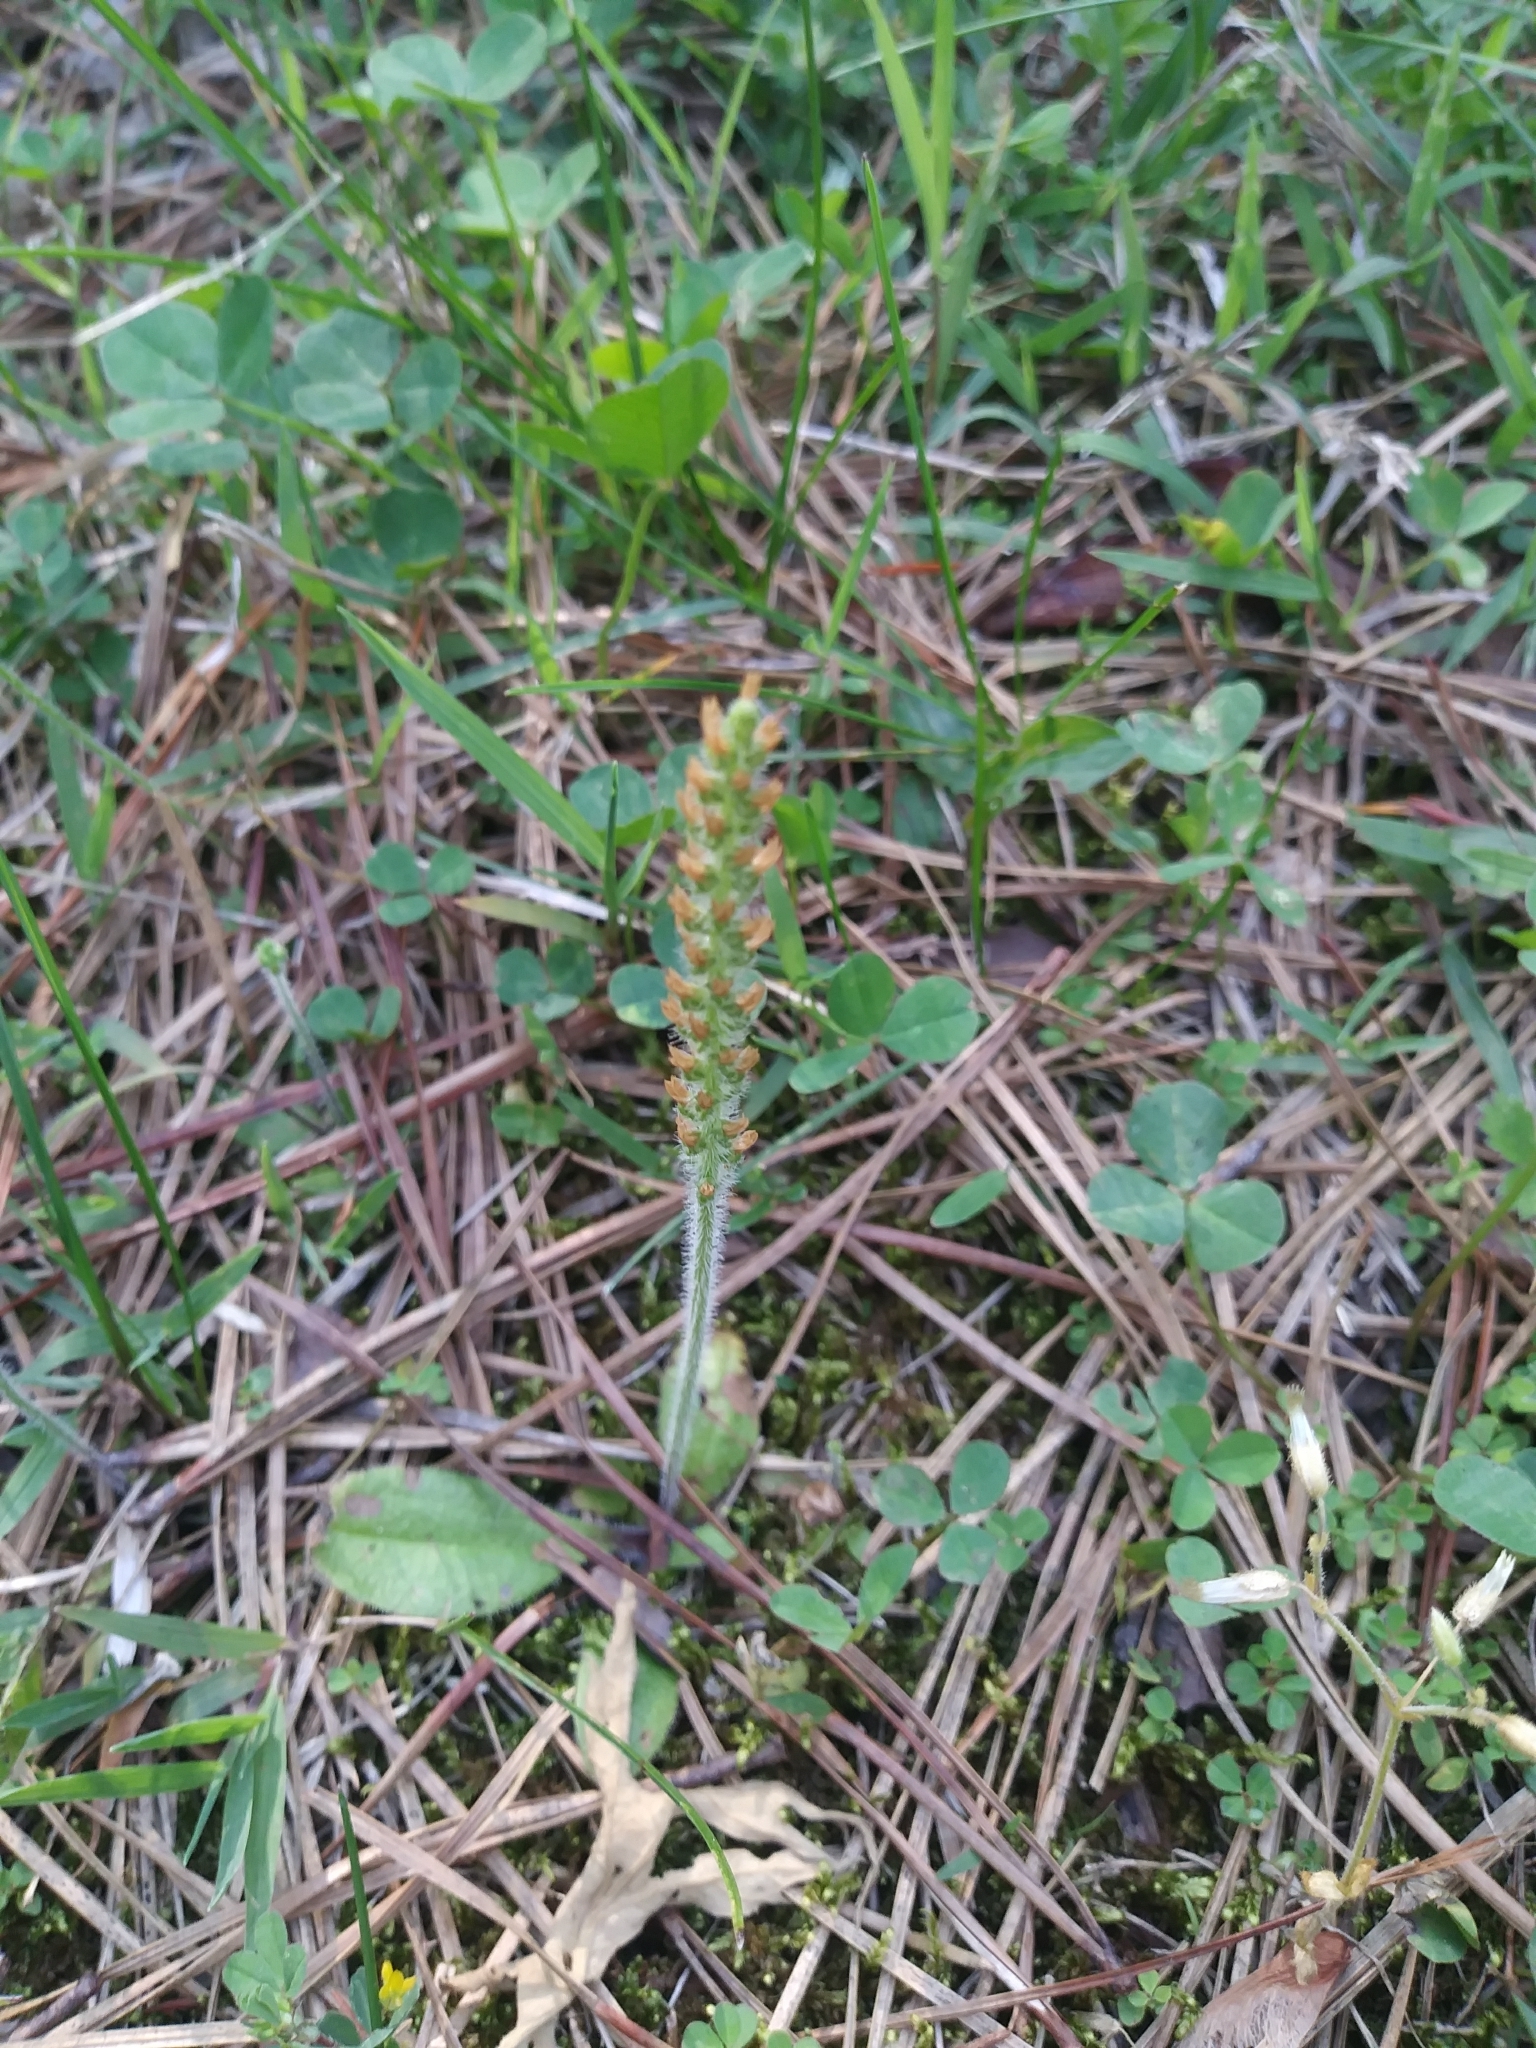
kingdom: Plantae
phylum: Tracheophyta
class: Magnoliopsida
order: Lamiales
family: Plantaginaceae
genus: Plantago
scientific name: Plantago virginica
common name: Hoary plantain
